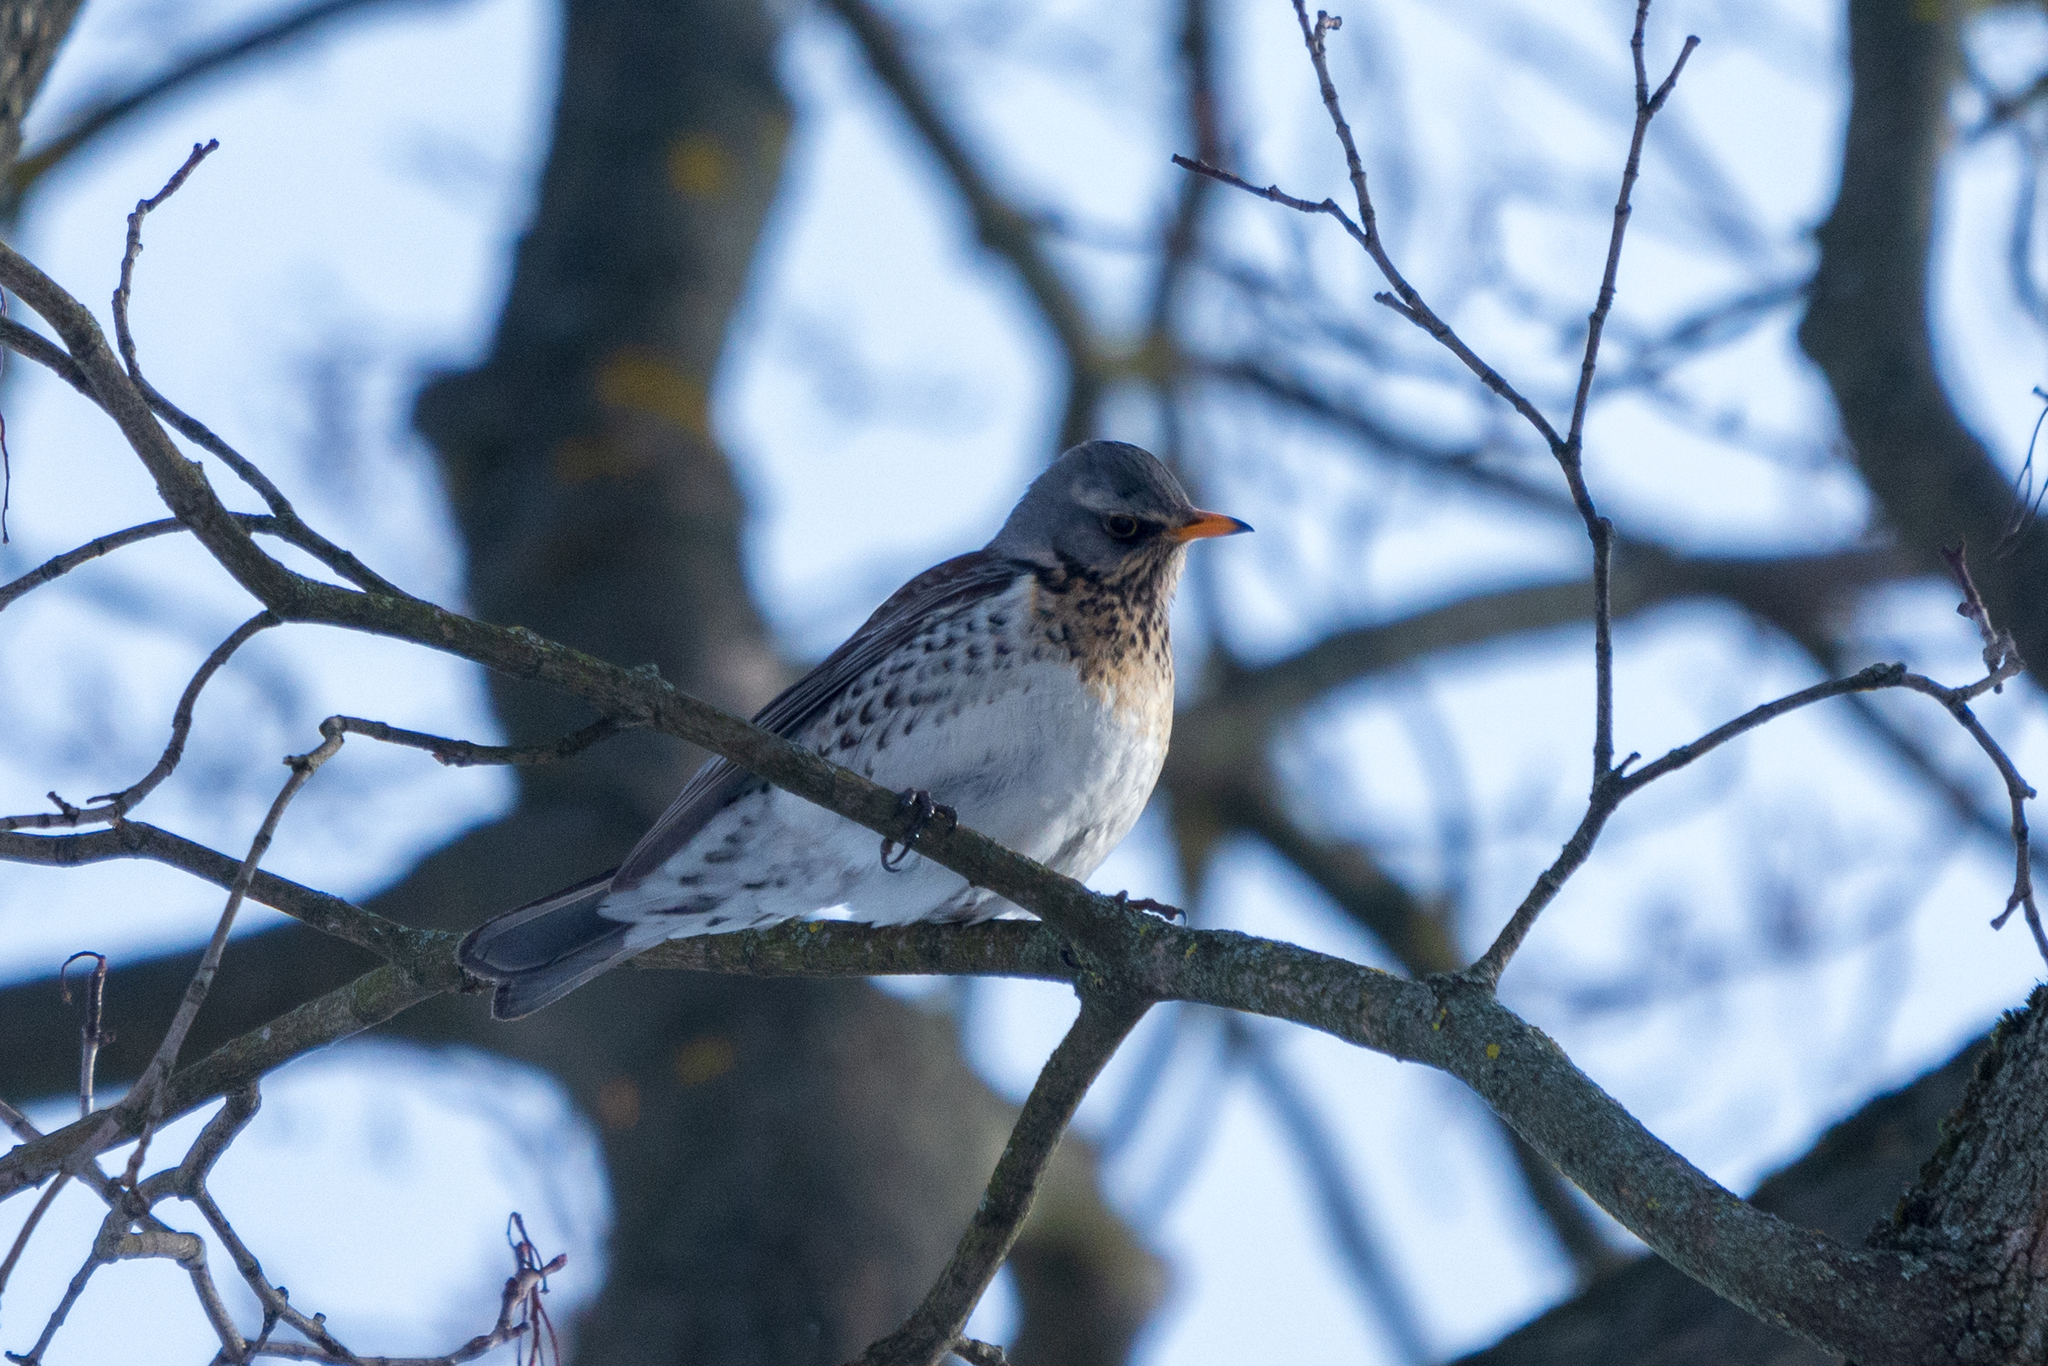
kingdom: Animalia
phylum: Chordata
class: Aves
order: Passeriformes
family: Turdidae
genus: Turdus
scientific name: Turdus pilaris
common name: Fieldfare
